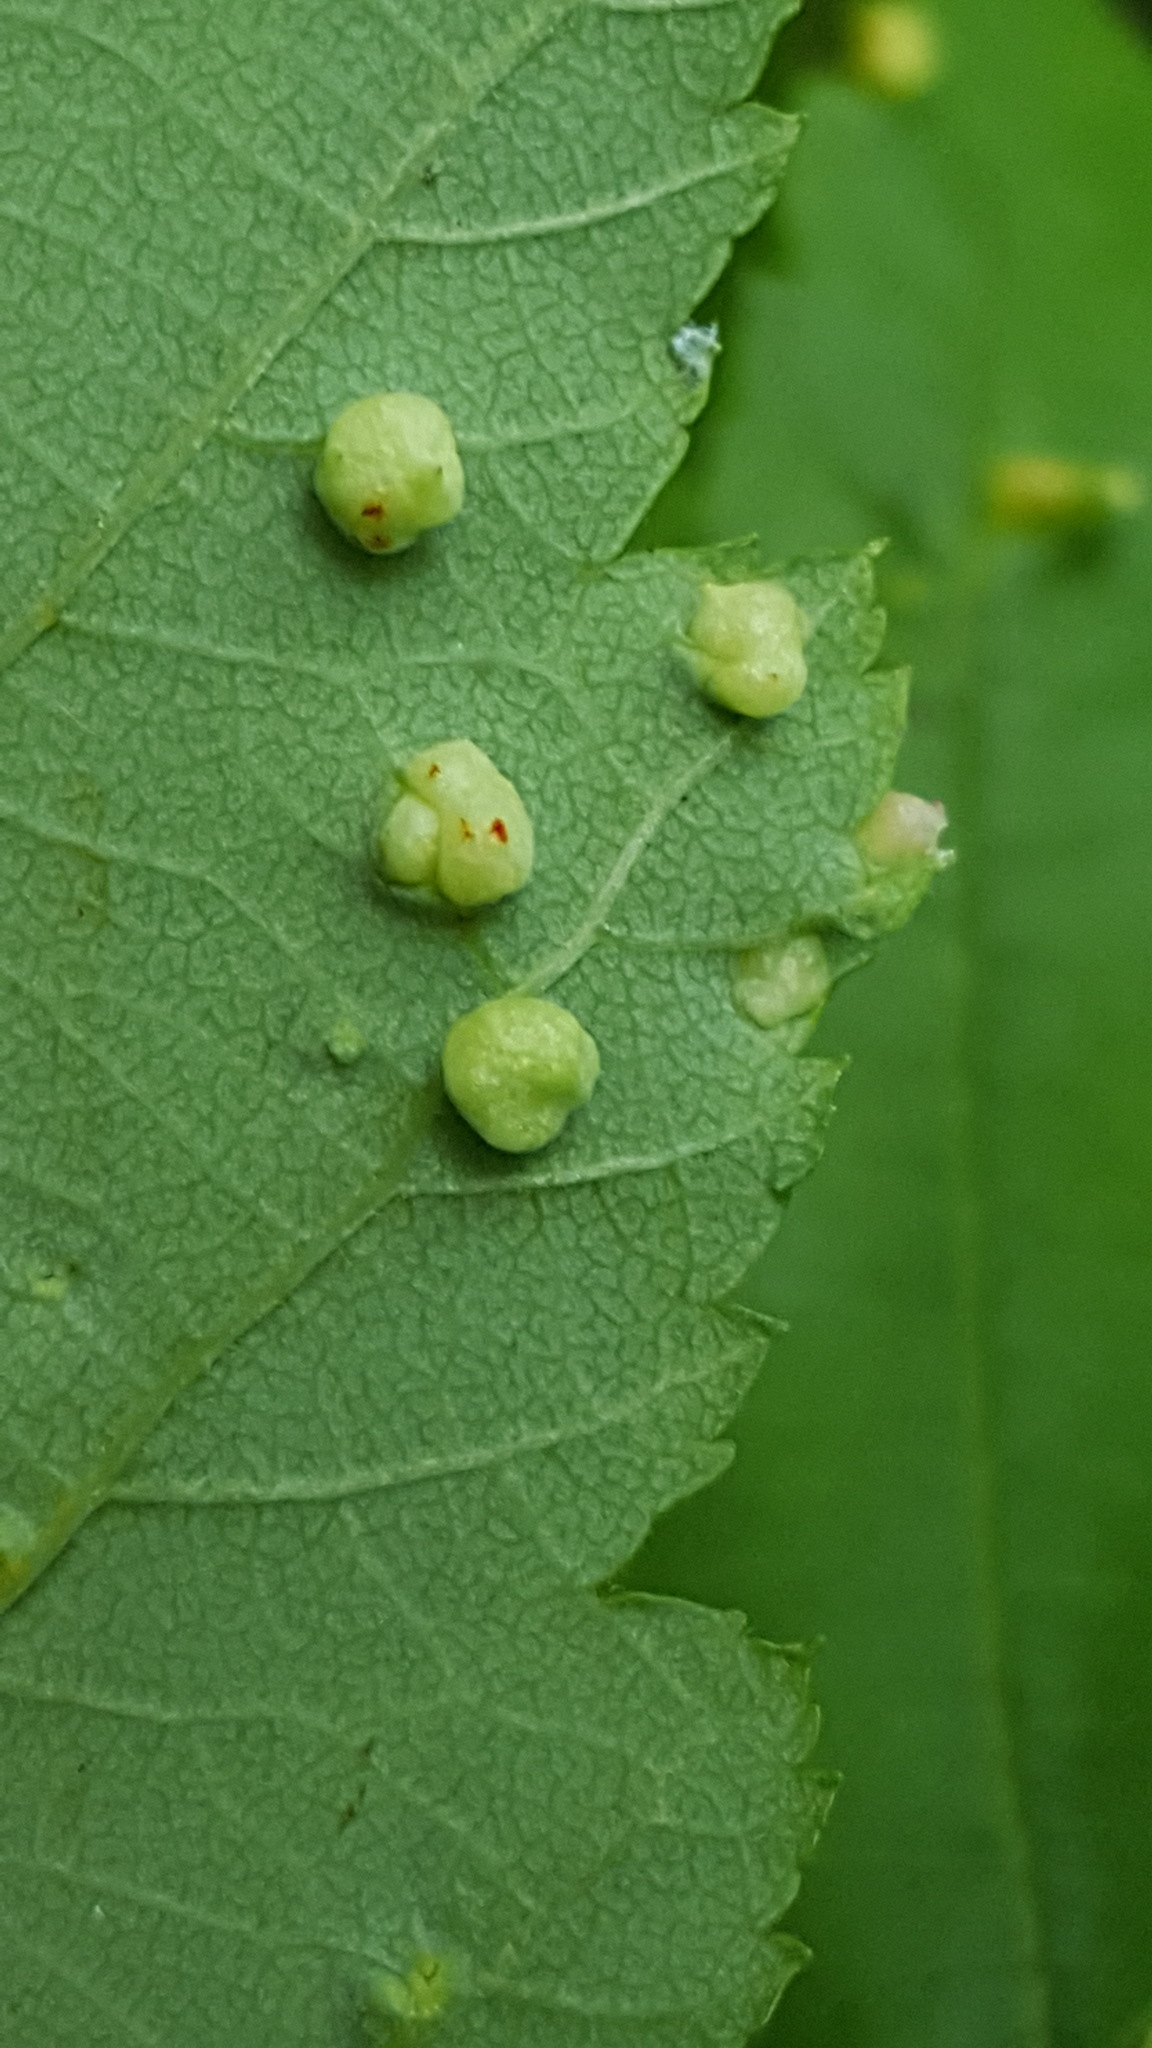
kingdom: Animalia
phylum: Arthropoda
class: Arachnida
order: Trombidiformes
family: Eriophyidae
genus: Eriophyes
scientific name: Eriophyes laevis
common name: Alder leaf gall mite
